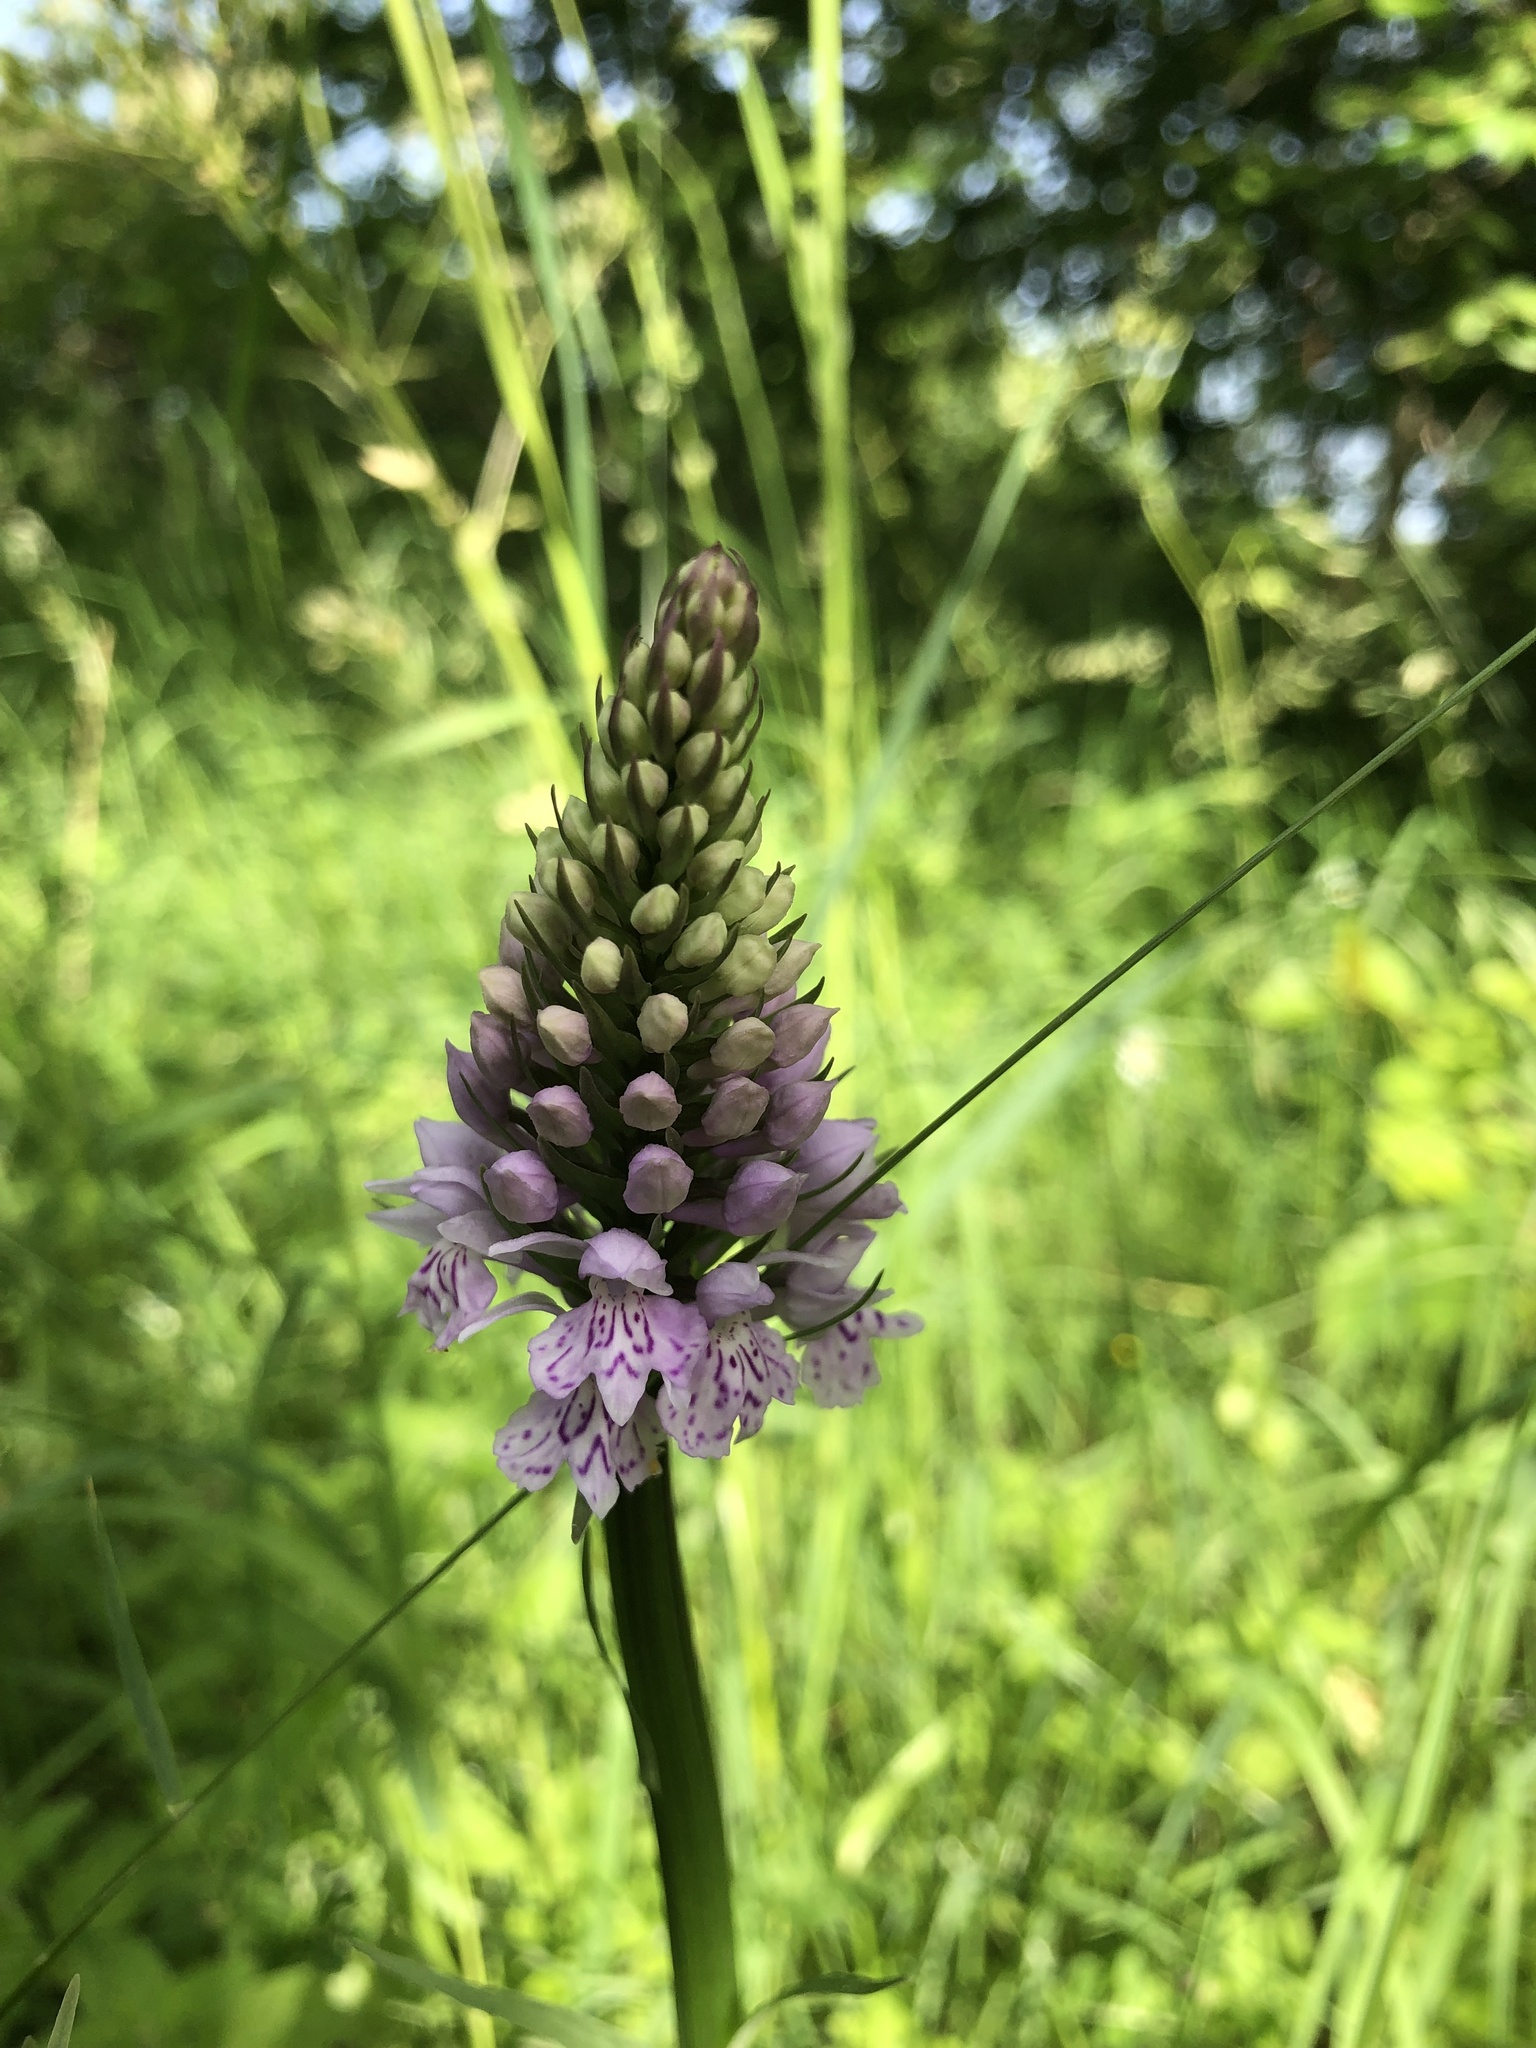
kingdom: Plantae
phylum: Tracheophyta
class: Liliopsida
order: Asparagales
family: Orchidaceae
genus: Dactylorhiza
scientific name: Dactylorhiza maculata
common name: Heath spotted-orchid
